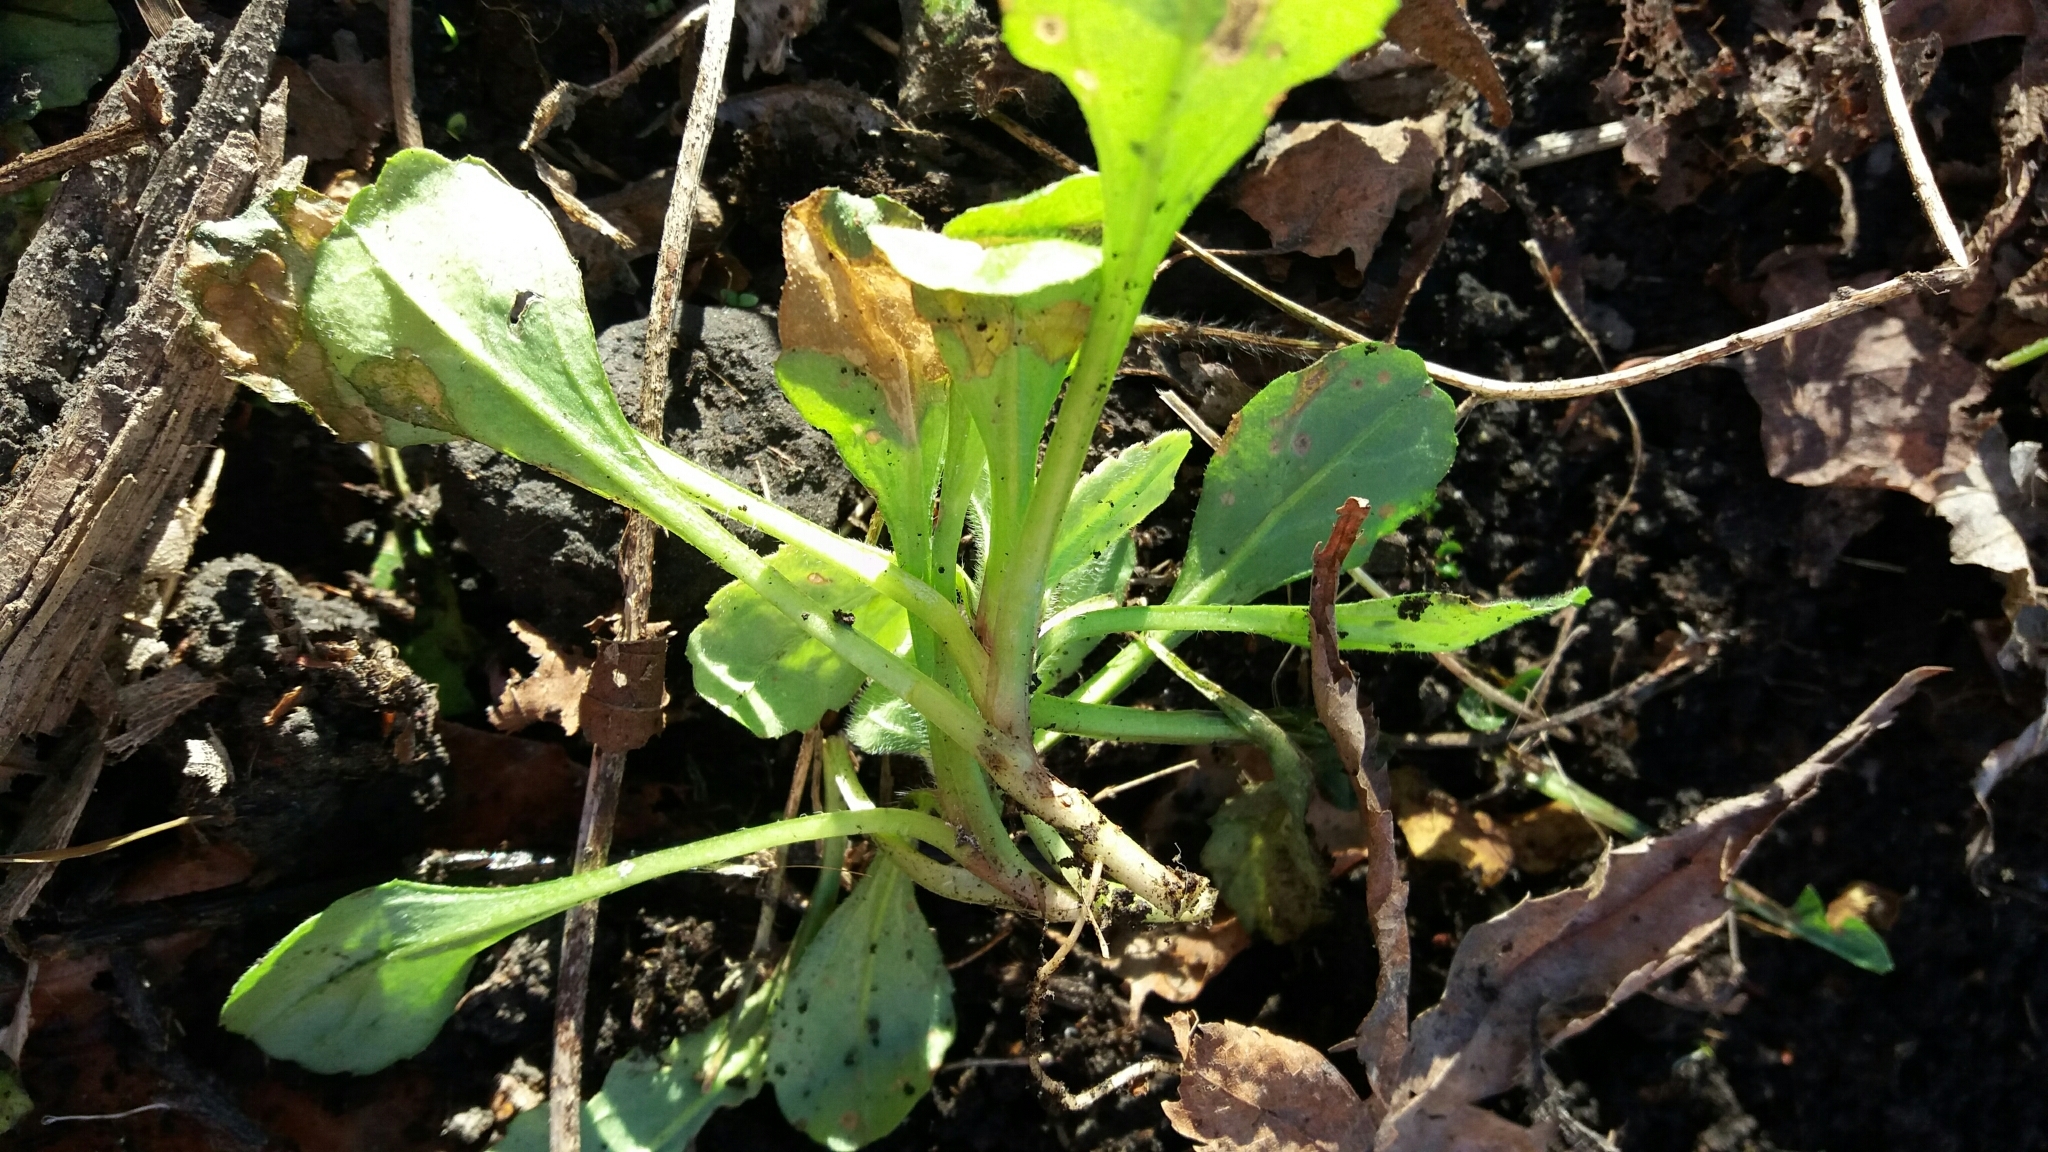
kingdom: Plantae
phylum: Tracheophyta
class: Magnoliopsida
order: Asterales
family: Asteraceae
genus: Bellis
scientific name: Bellis perennis
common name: Lawndaisy
